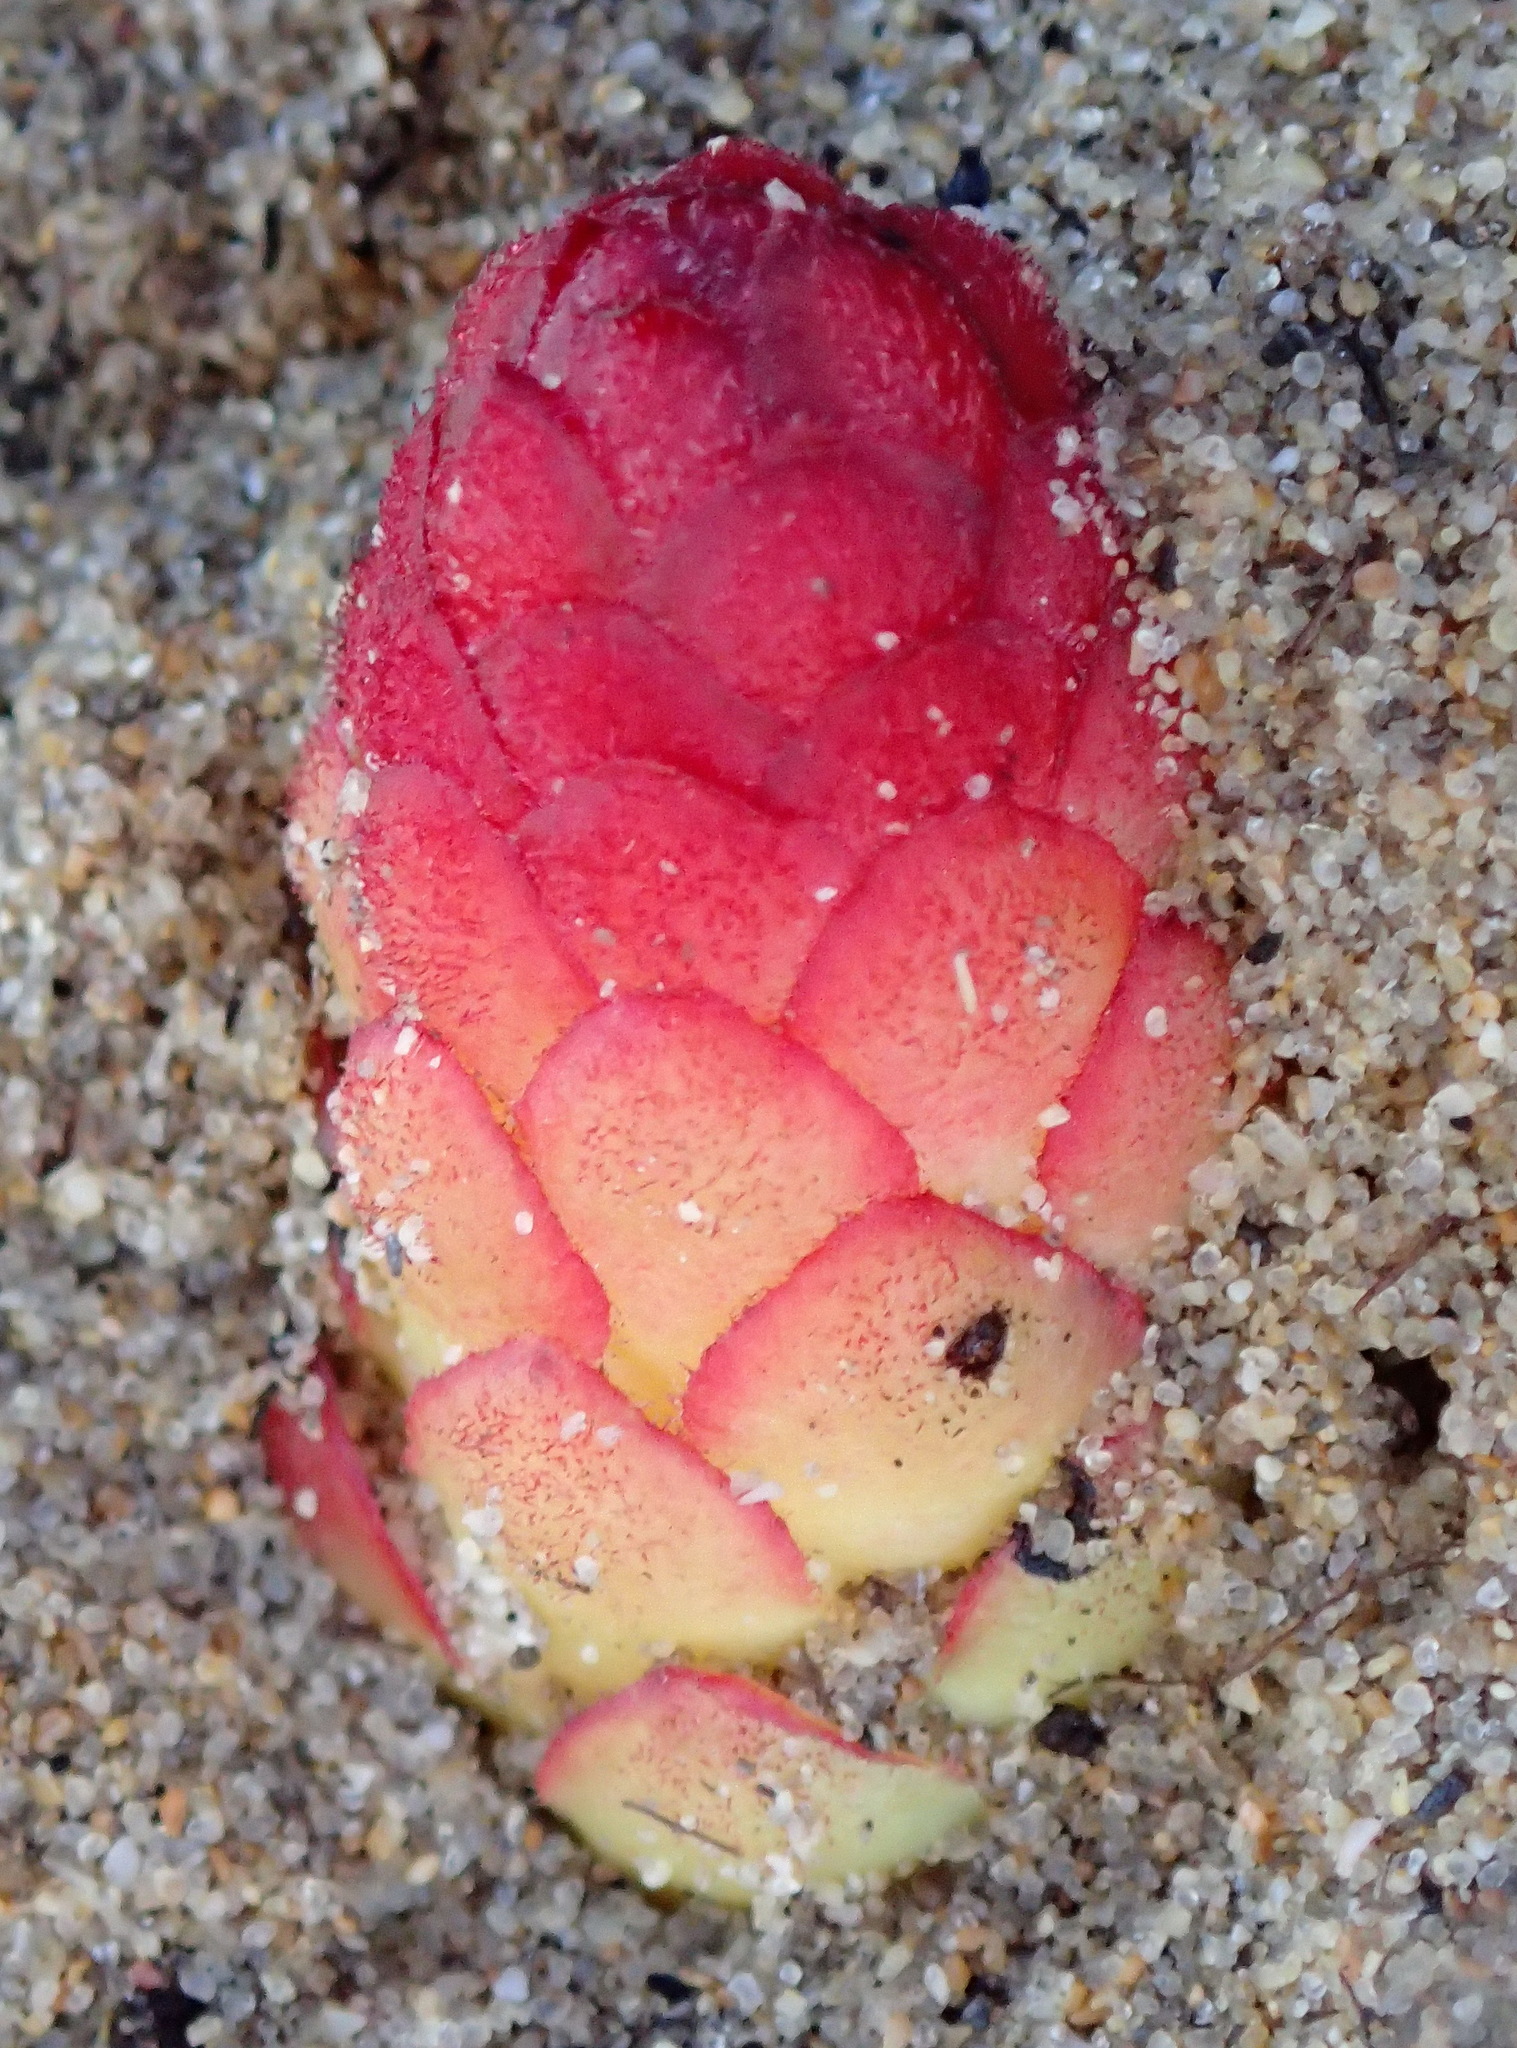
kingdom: Plantae
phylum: Tracheophyta
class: Magnoliopsida
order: Lamiales
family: Orobanchaceae
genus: Hyobanche
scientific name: Hyobanche robusta
